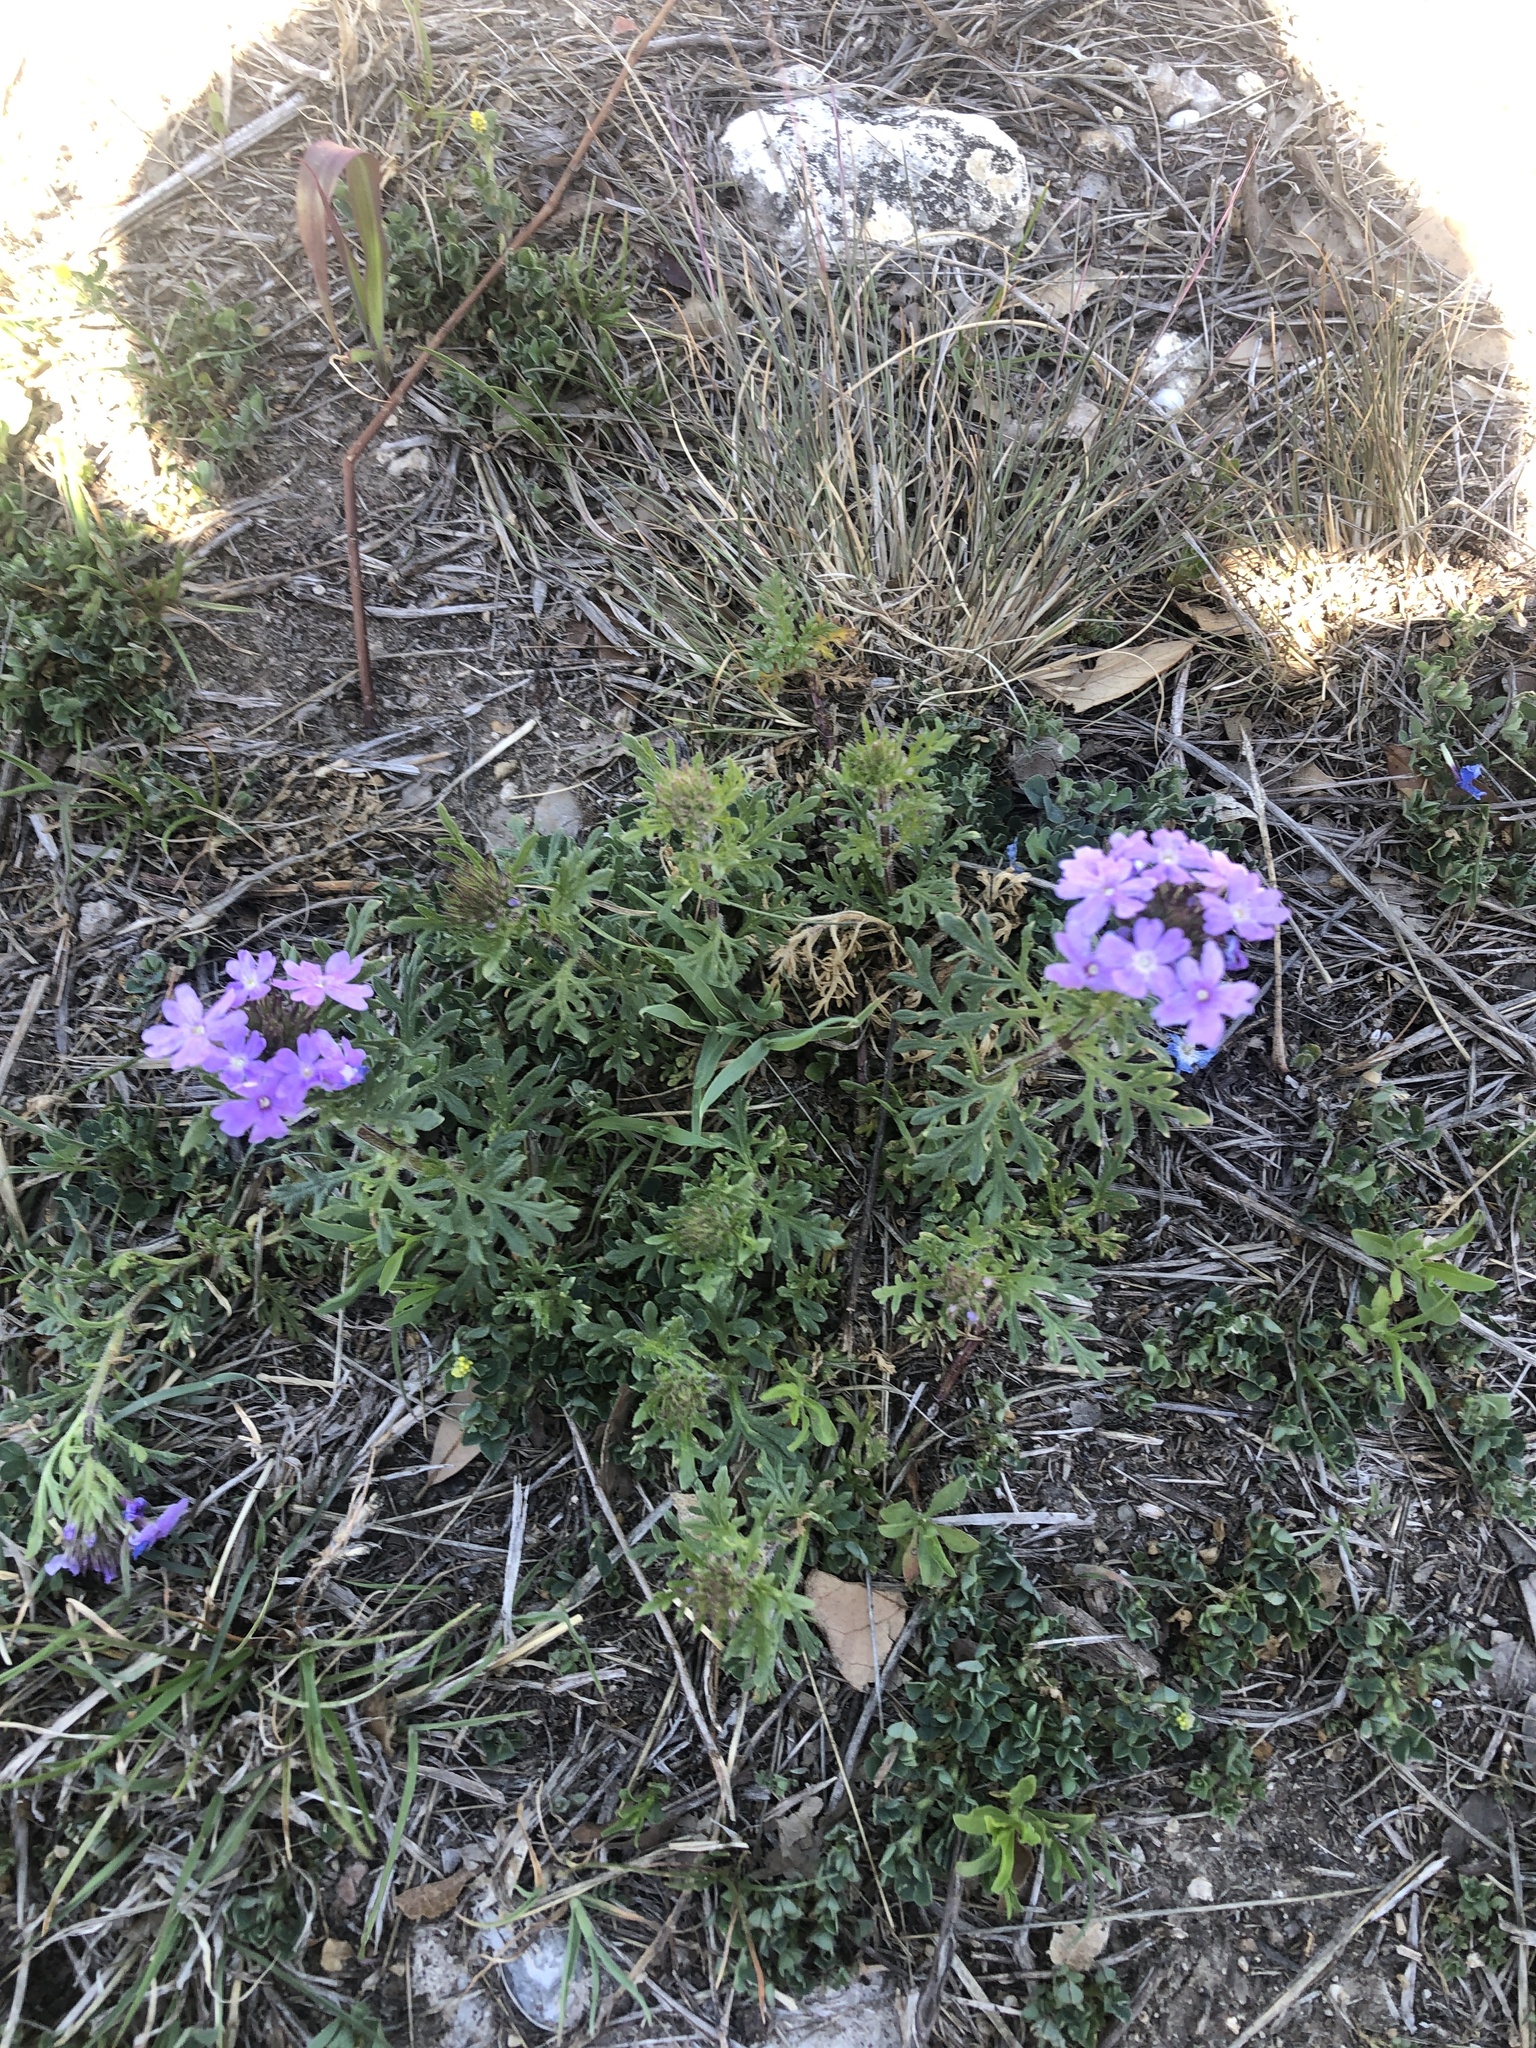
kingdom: Plantae
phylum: Tracheophyta
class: Magnoliopsida
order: Lamiales
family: Verbenaceae
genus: Verbena
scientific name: Verbena bipinnatifida
